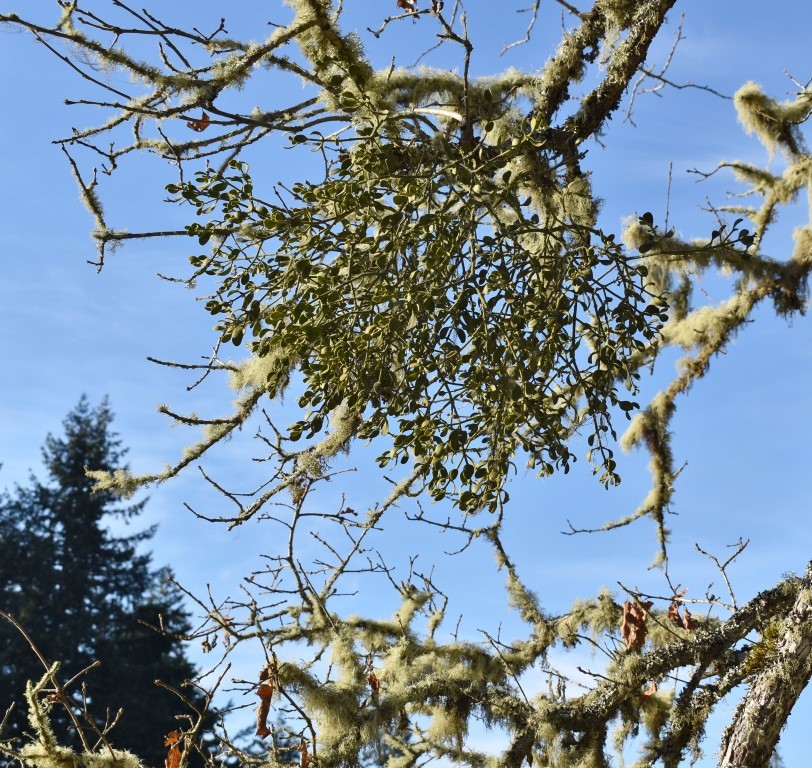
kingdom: Plantae
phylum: Tracheophyta
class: Magnoliopsida
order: Santalales
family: Viscaceae
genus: Phoradendron
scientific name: Phoradendron leucarpum
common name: Pacific mistletoe
